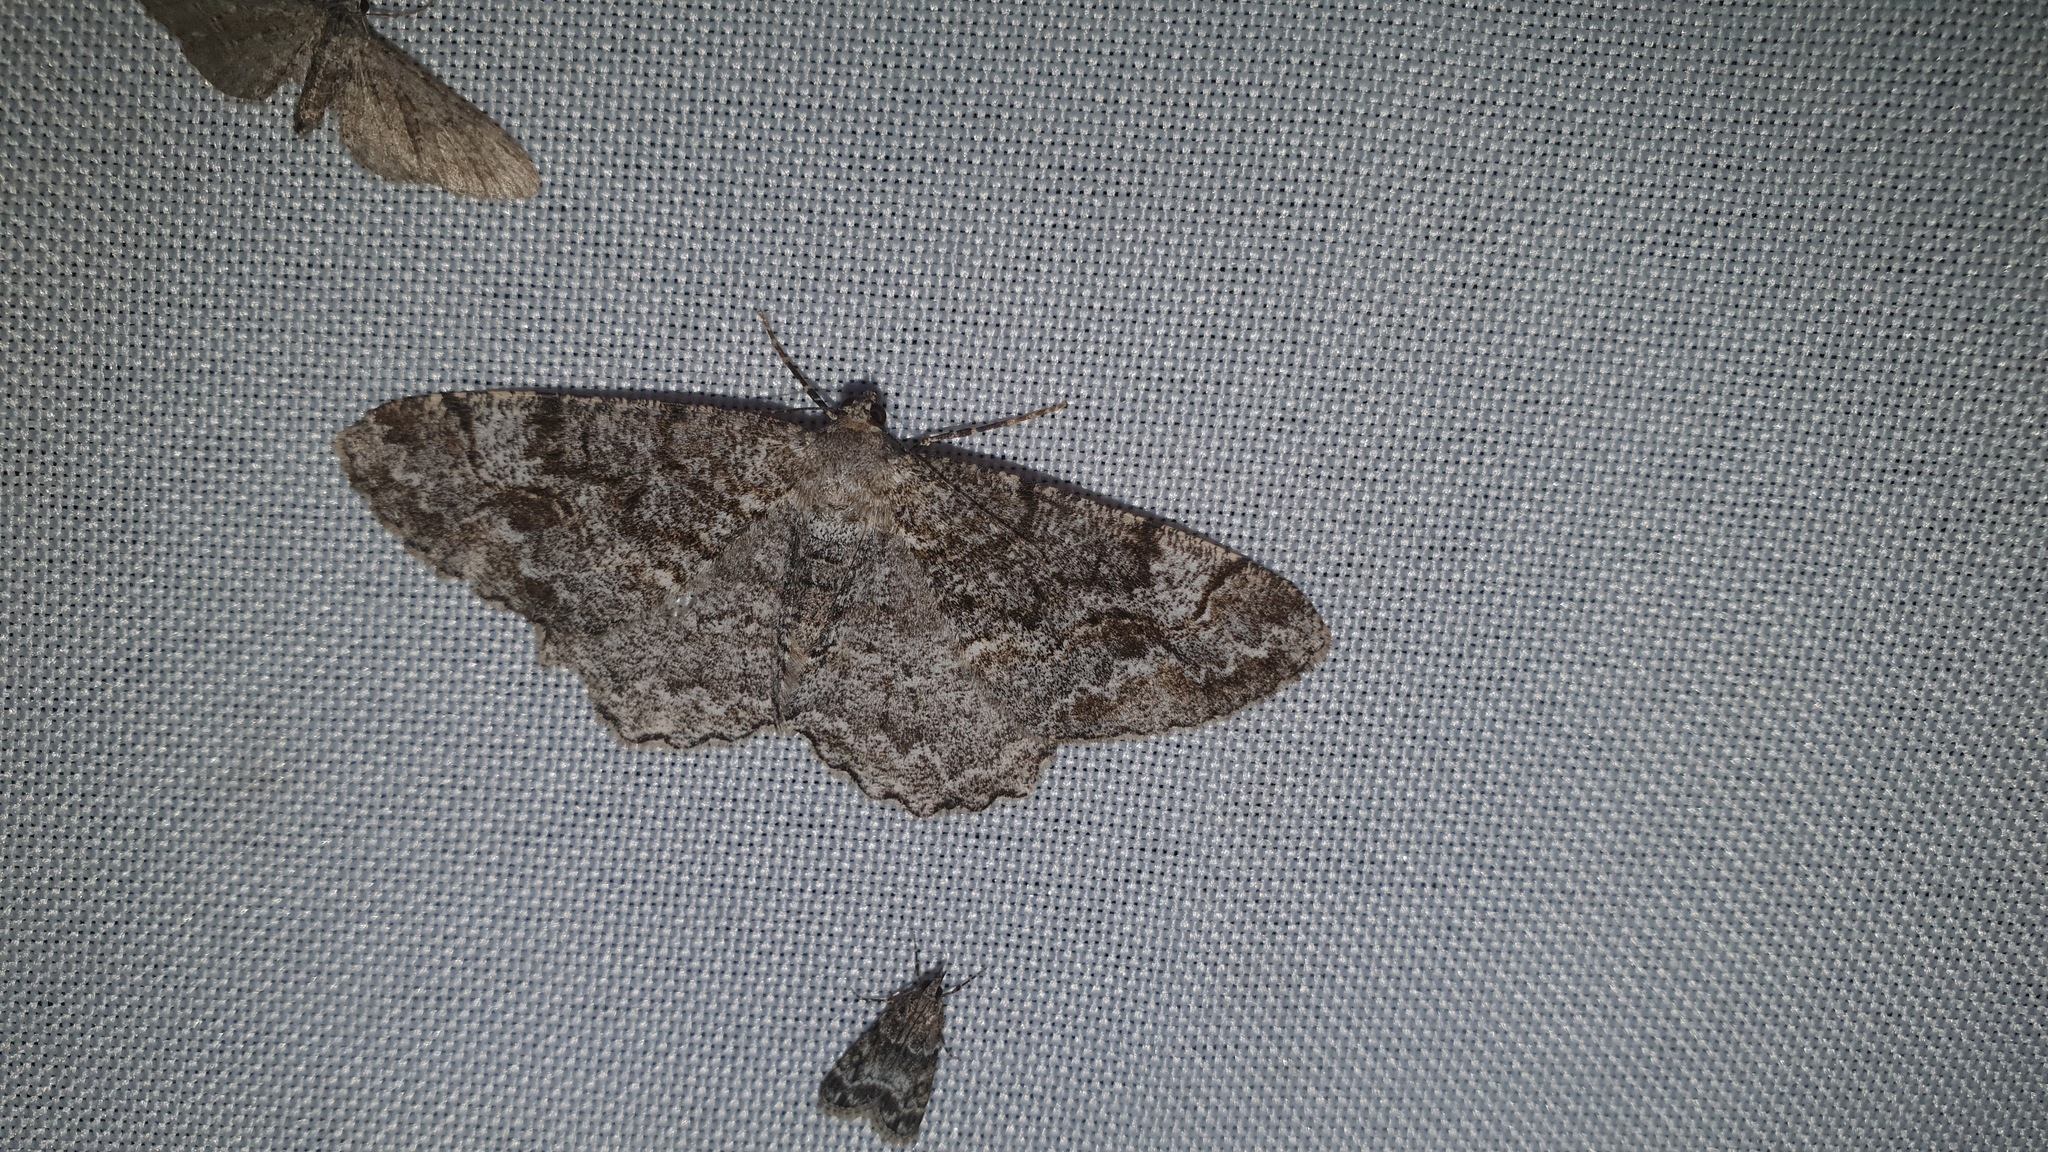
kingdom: Animalia
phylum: Arthropoda
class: Insecta
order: Lepidoptera
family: Geometridae
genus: Alcis
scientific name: Alcis repandata
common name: Mottled beauty
